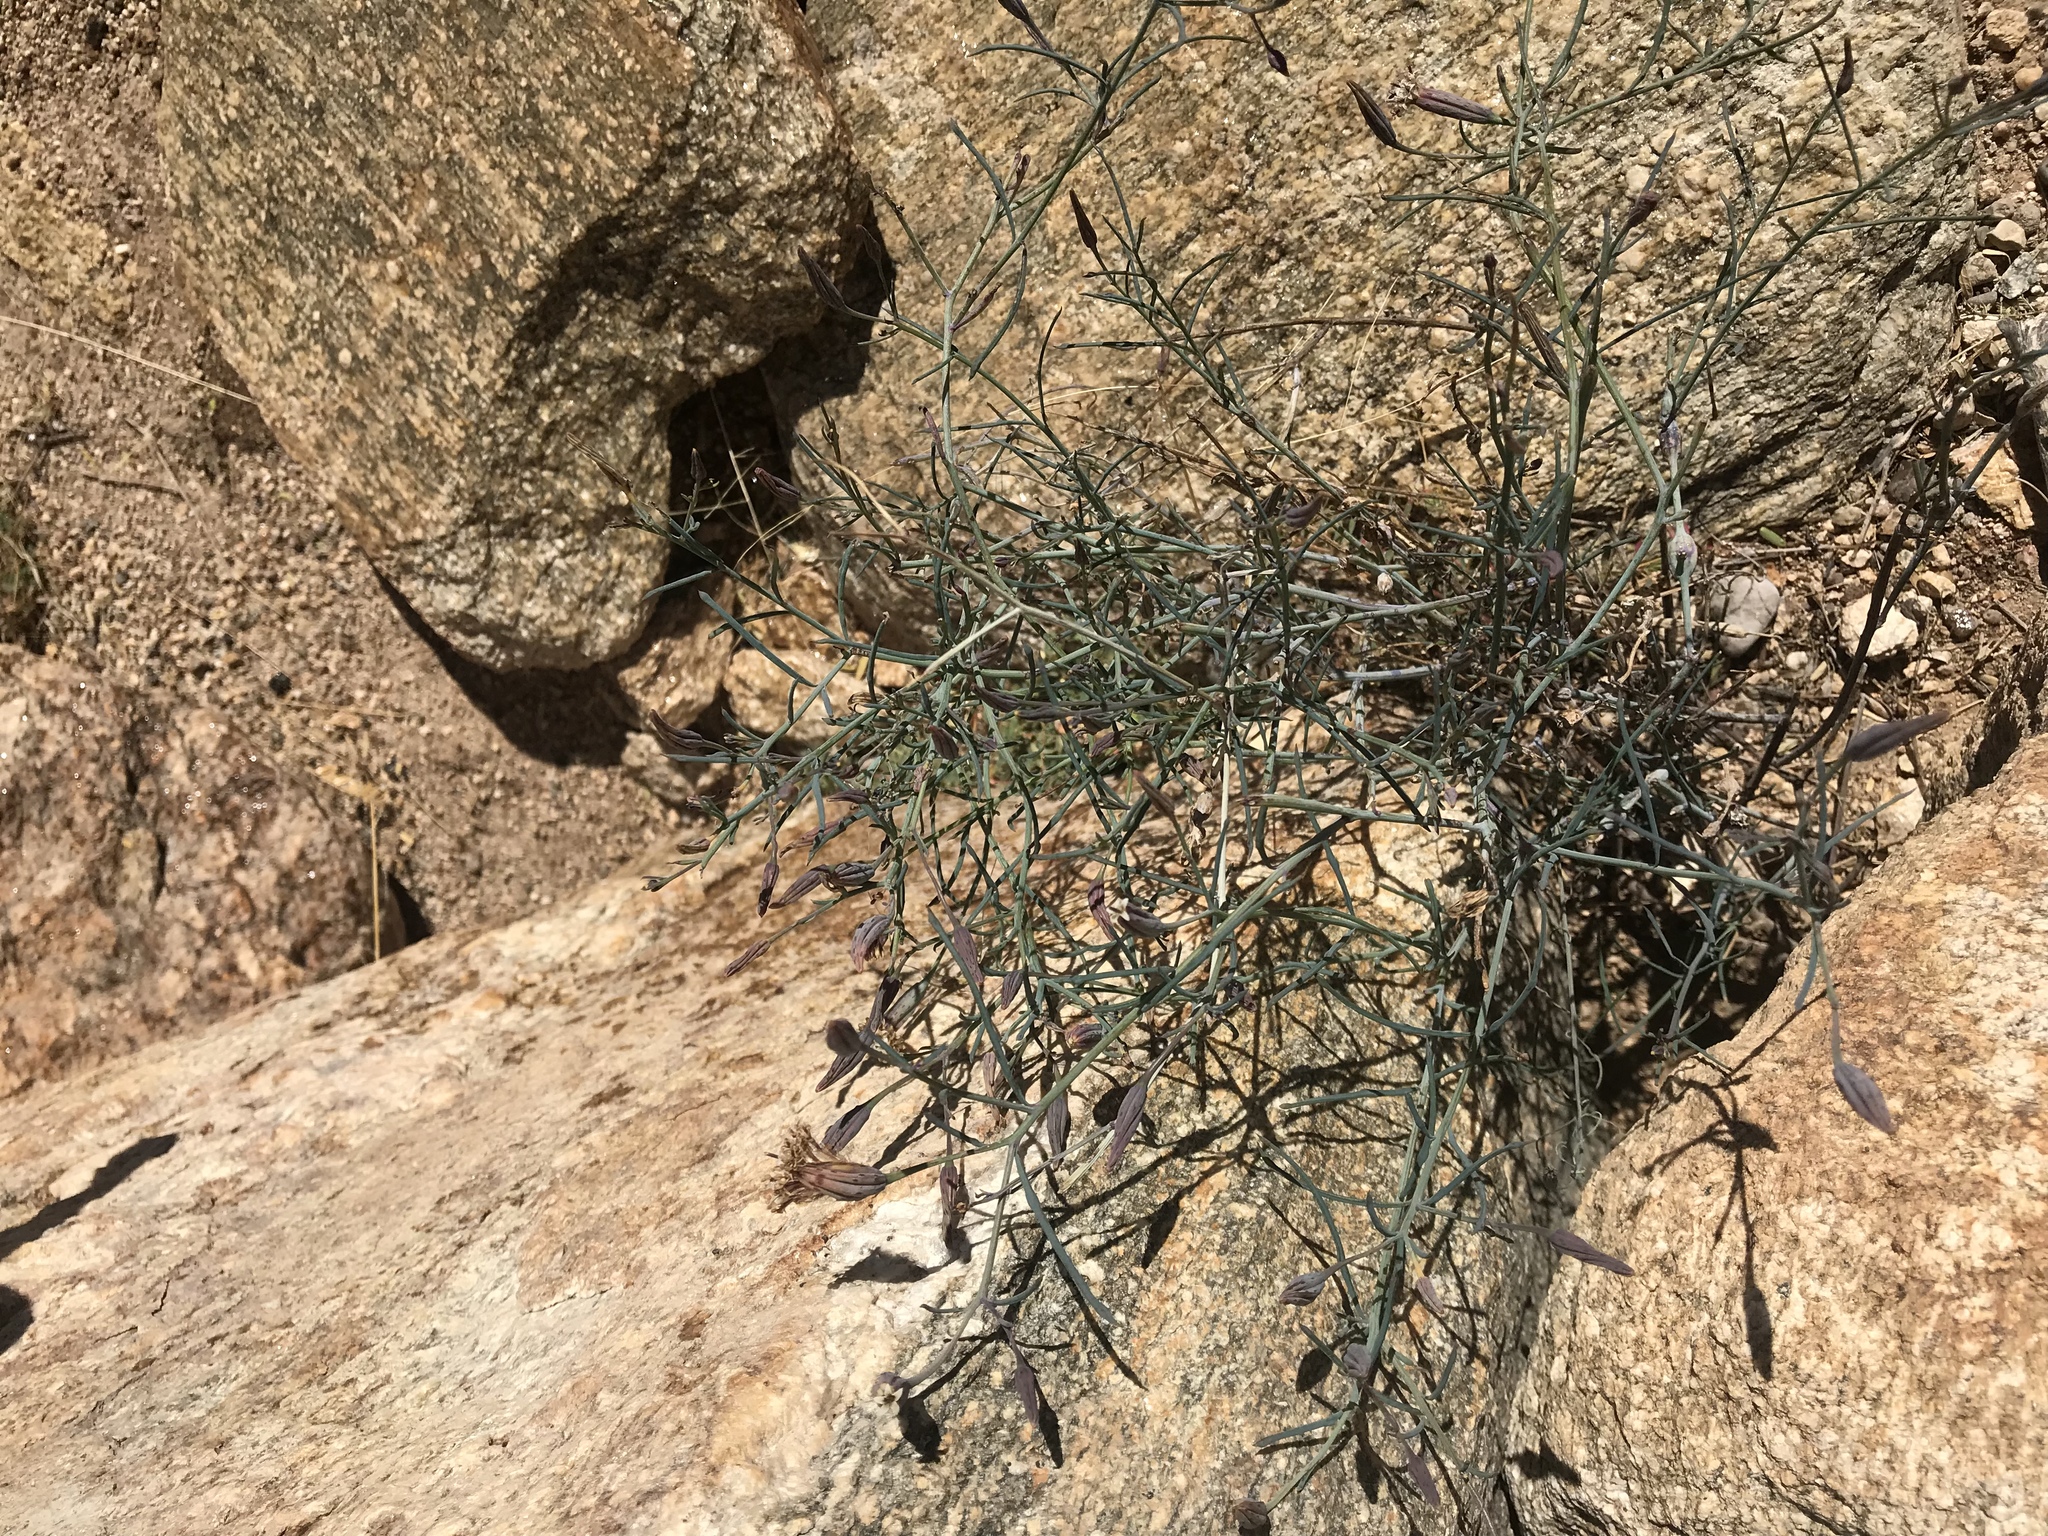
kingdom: Plantae
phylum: Tracheophyta
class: Magnoliopsida
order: Asterales
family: Asteraceae
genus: Porophyllum
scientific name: Porophyllum gracile
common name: Odora
